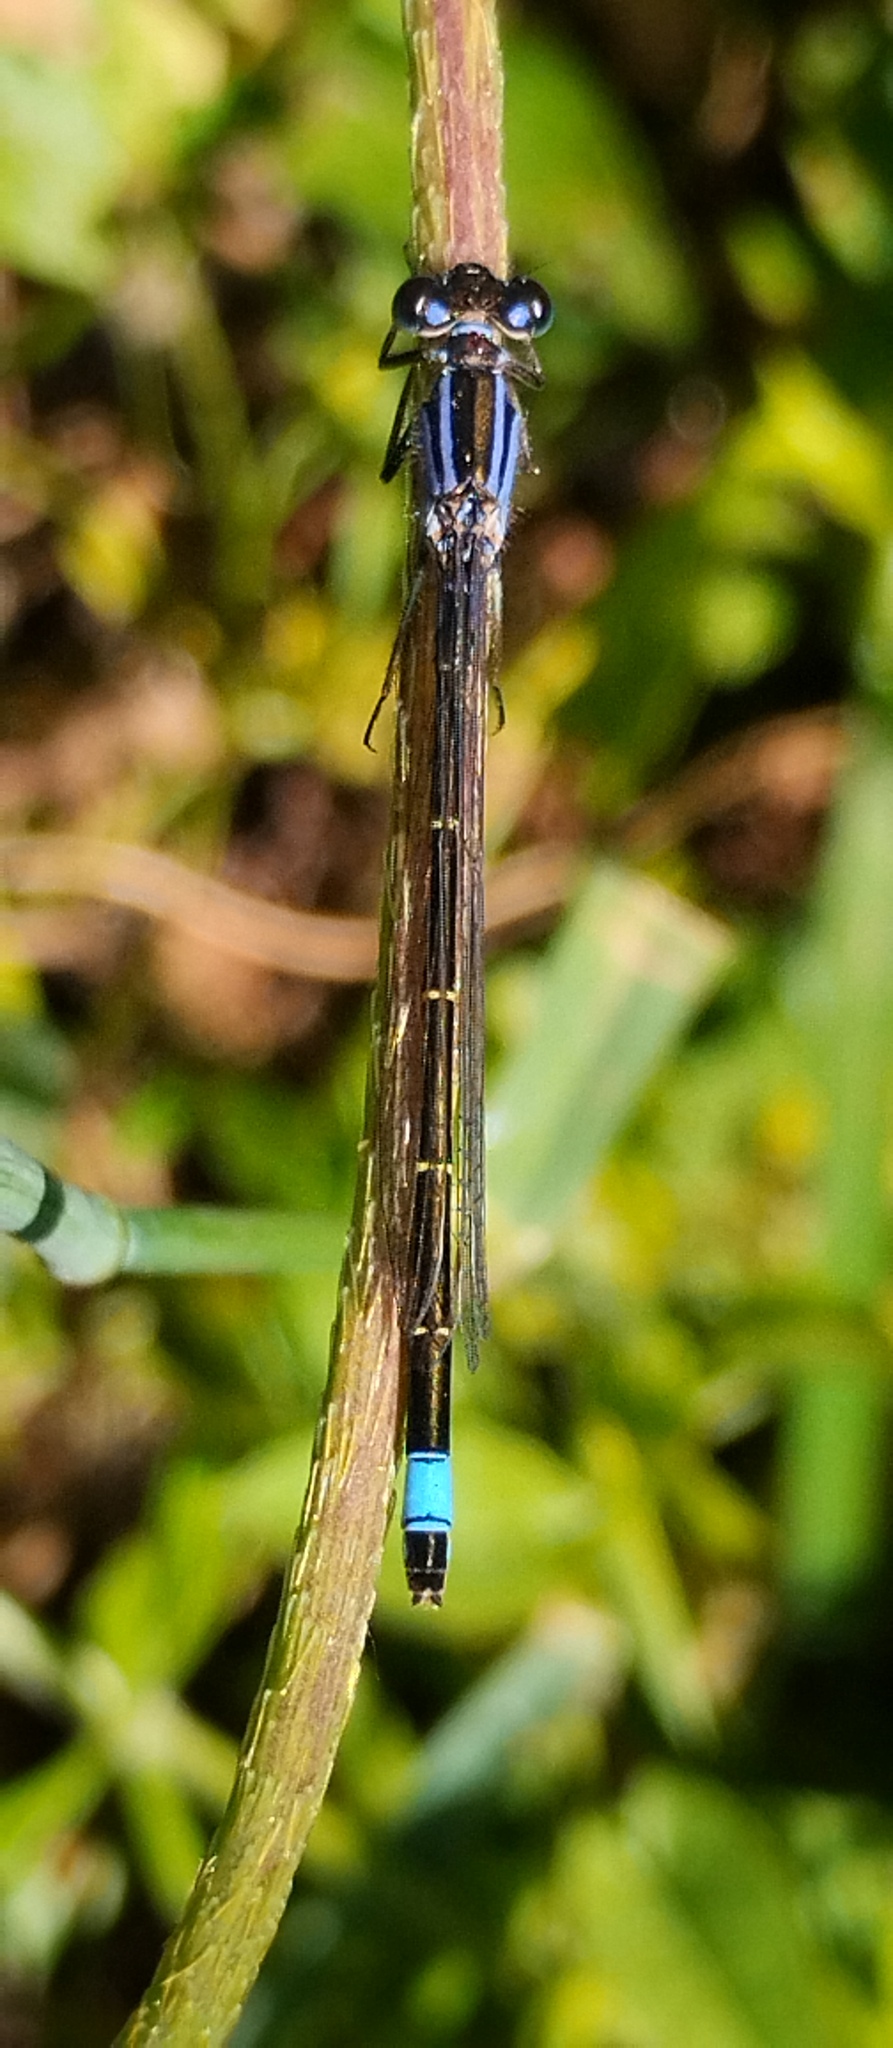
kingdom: Animalia
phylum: Arthropoda
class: Insecta
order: Odonata
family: Coenagrionidae
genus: Ischnura
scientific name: Ischnura elegans
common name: Blue-tailed damselfly
